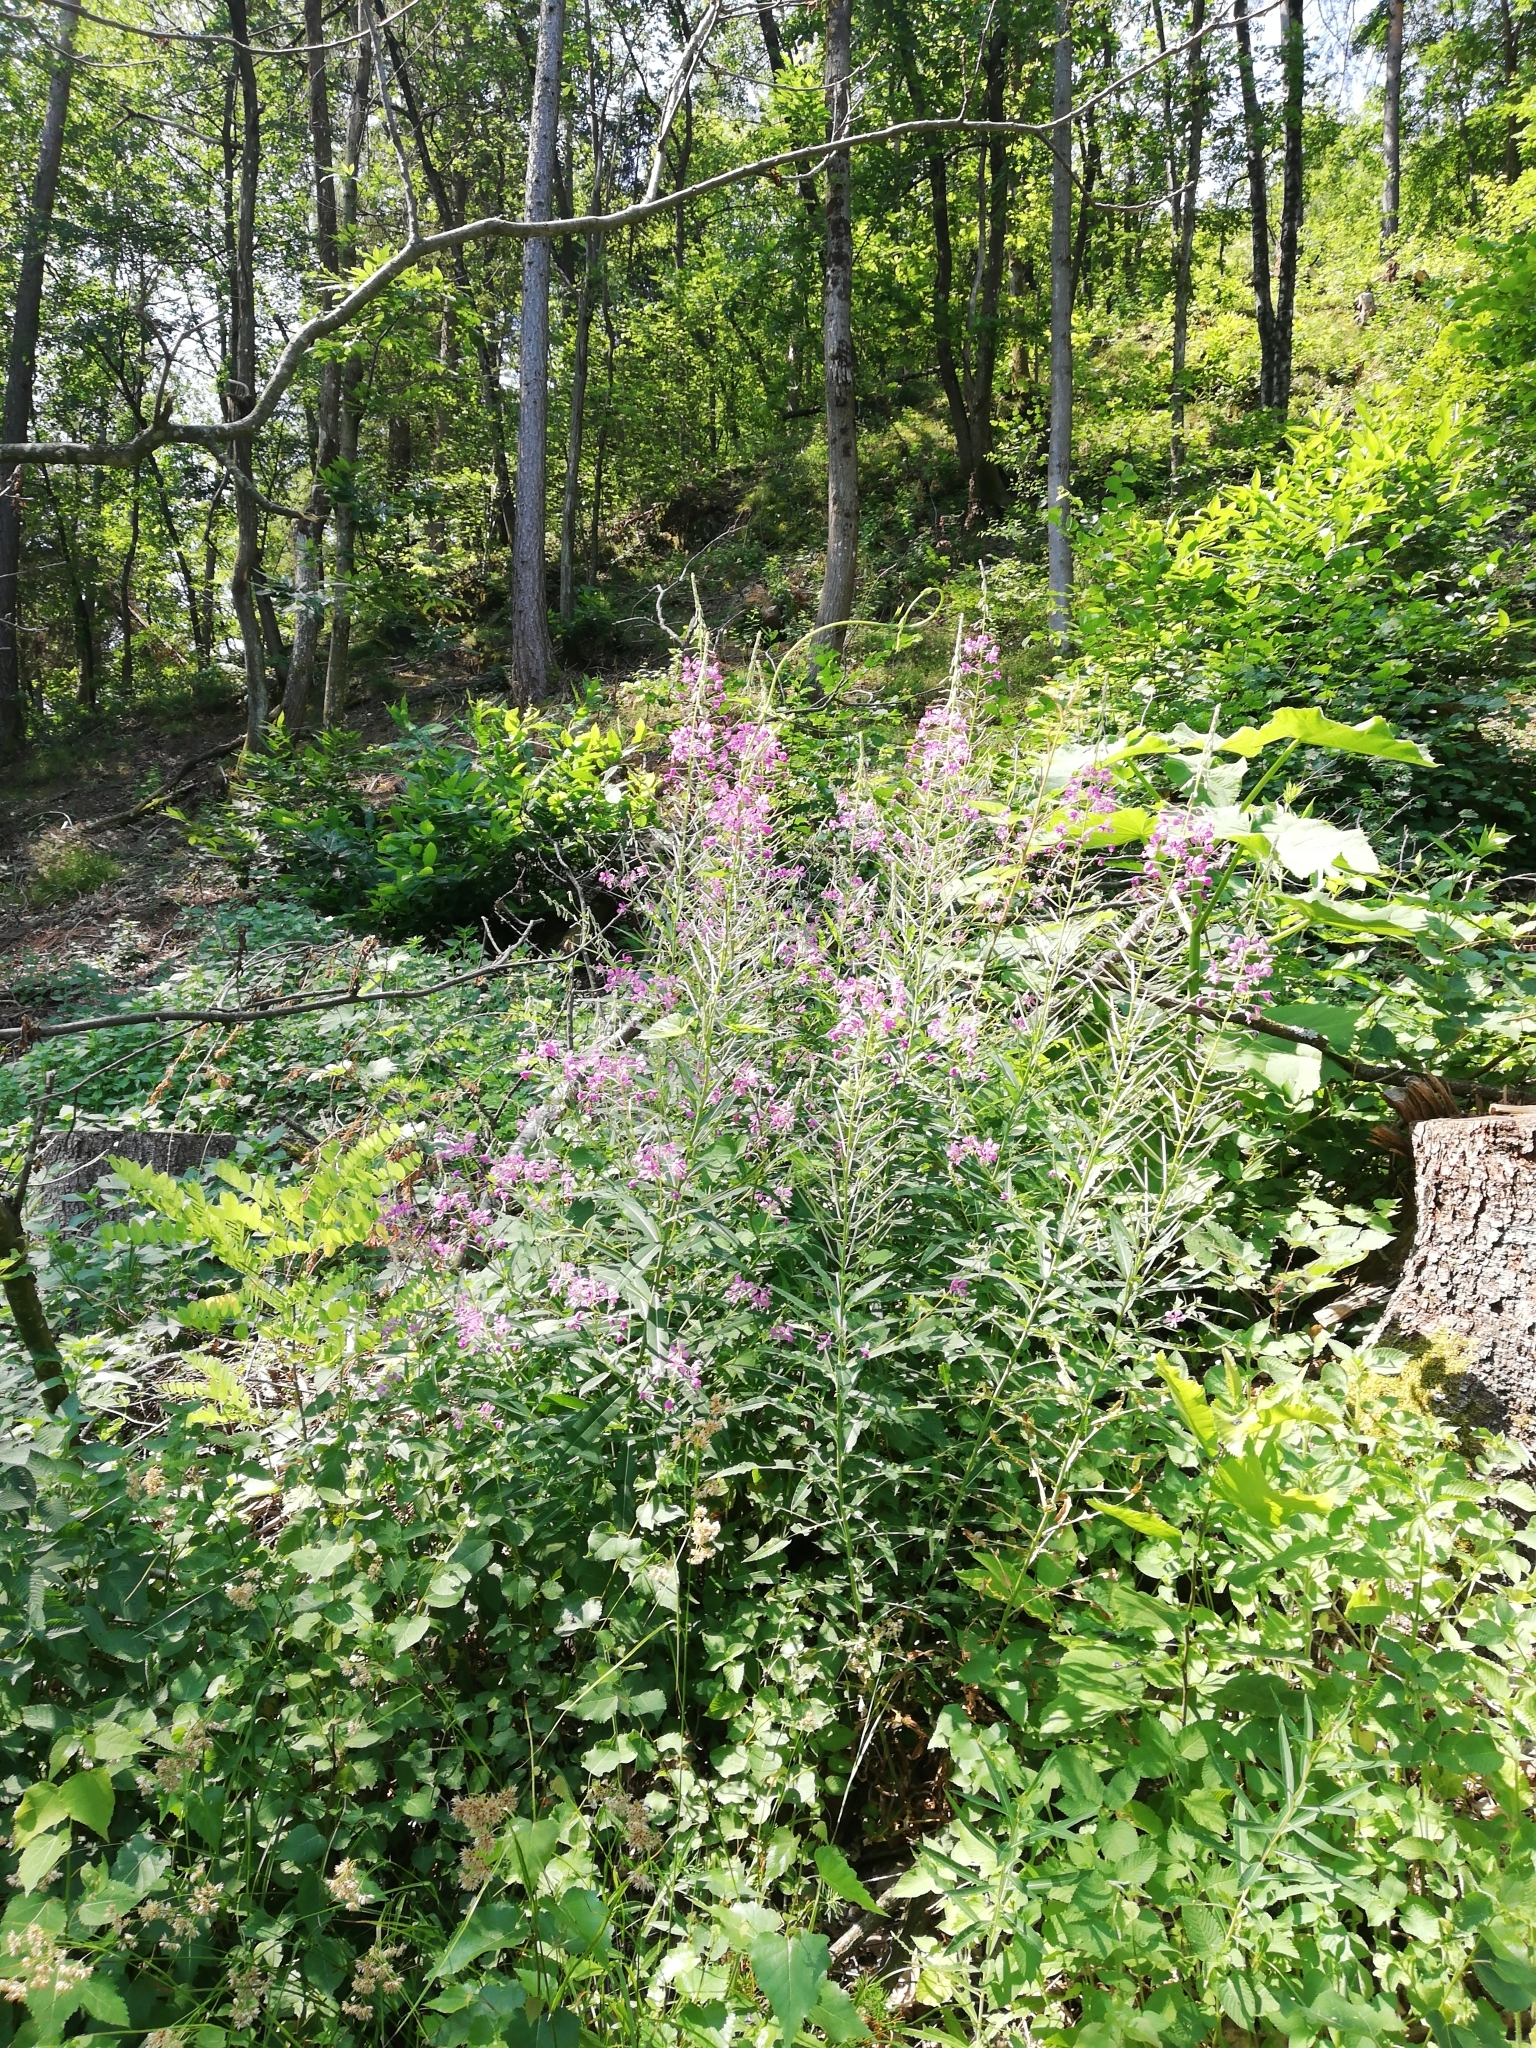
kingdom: Plantae
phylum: Tracheophyta
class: Magnoliopsida
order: Myrtales
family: Onagraceae
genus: Chamaenerion
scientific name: Chamaenerion angustifolium
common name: Fireweed
